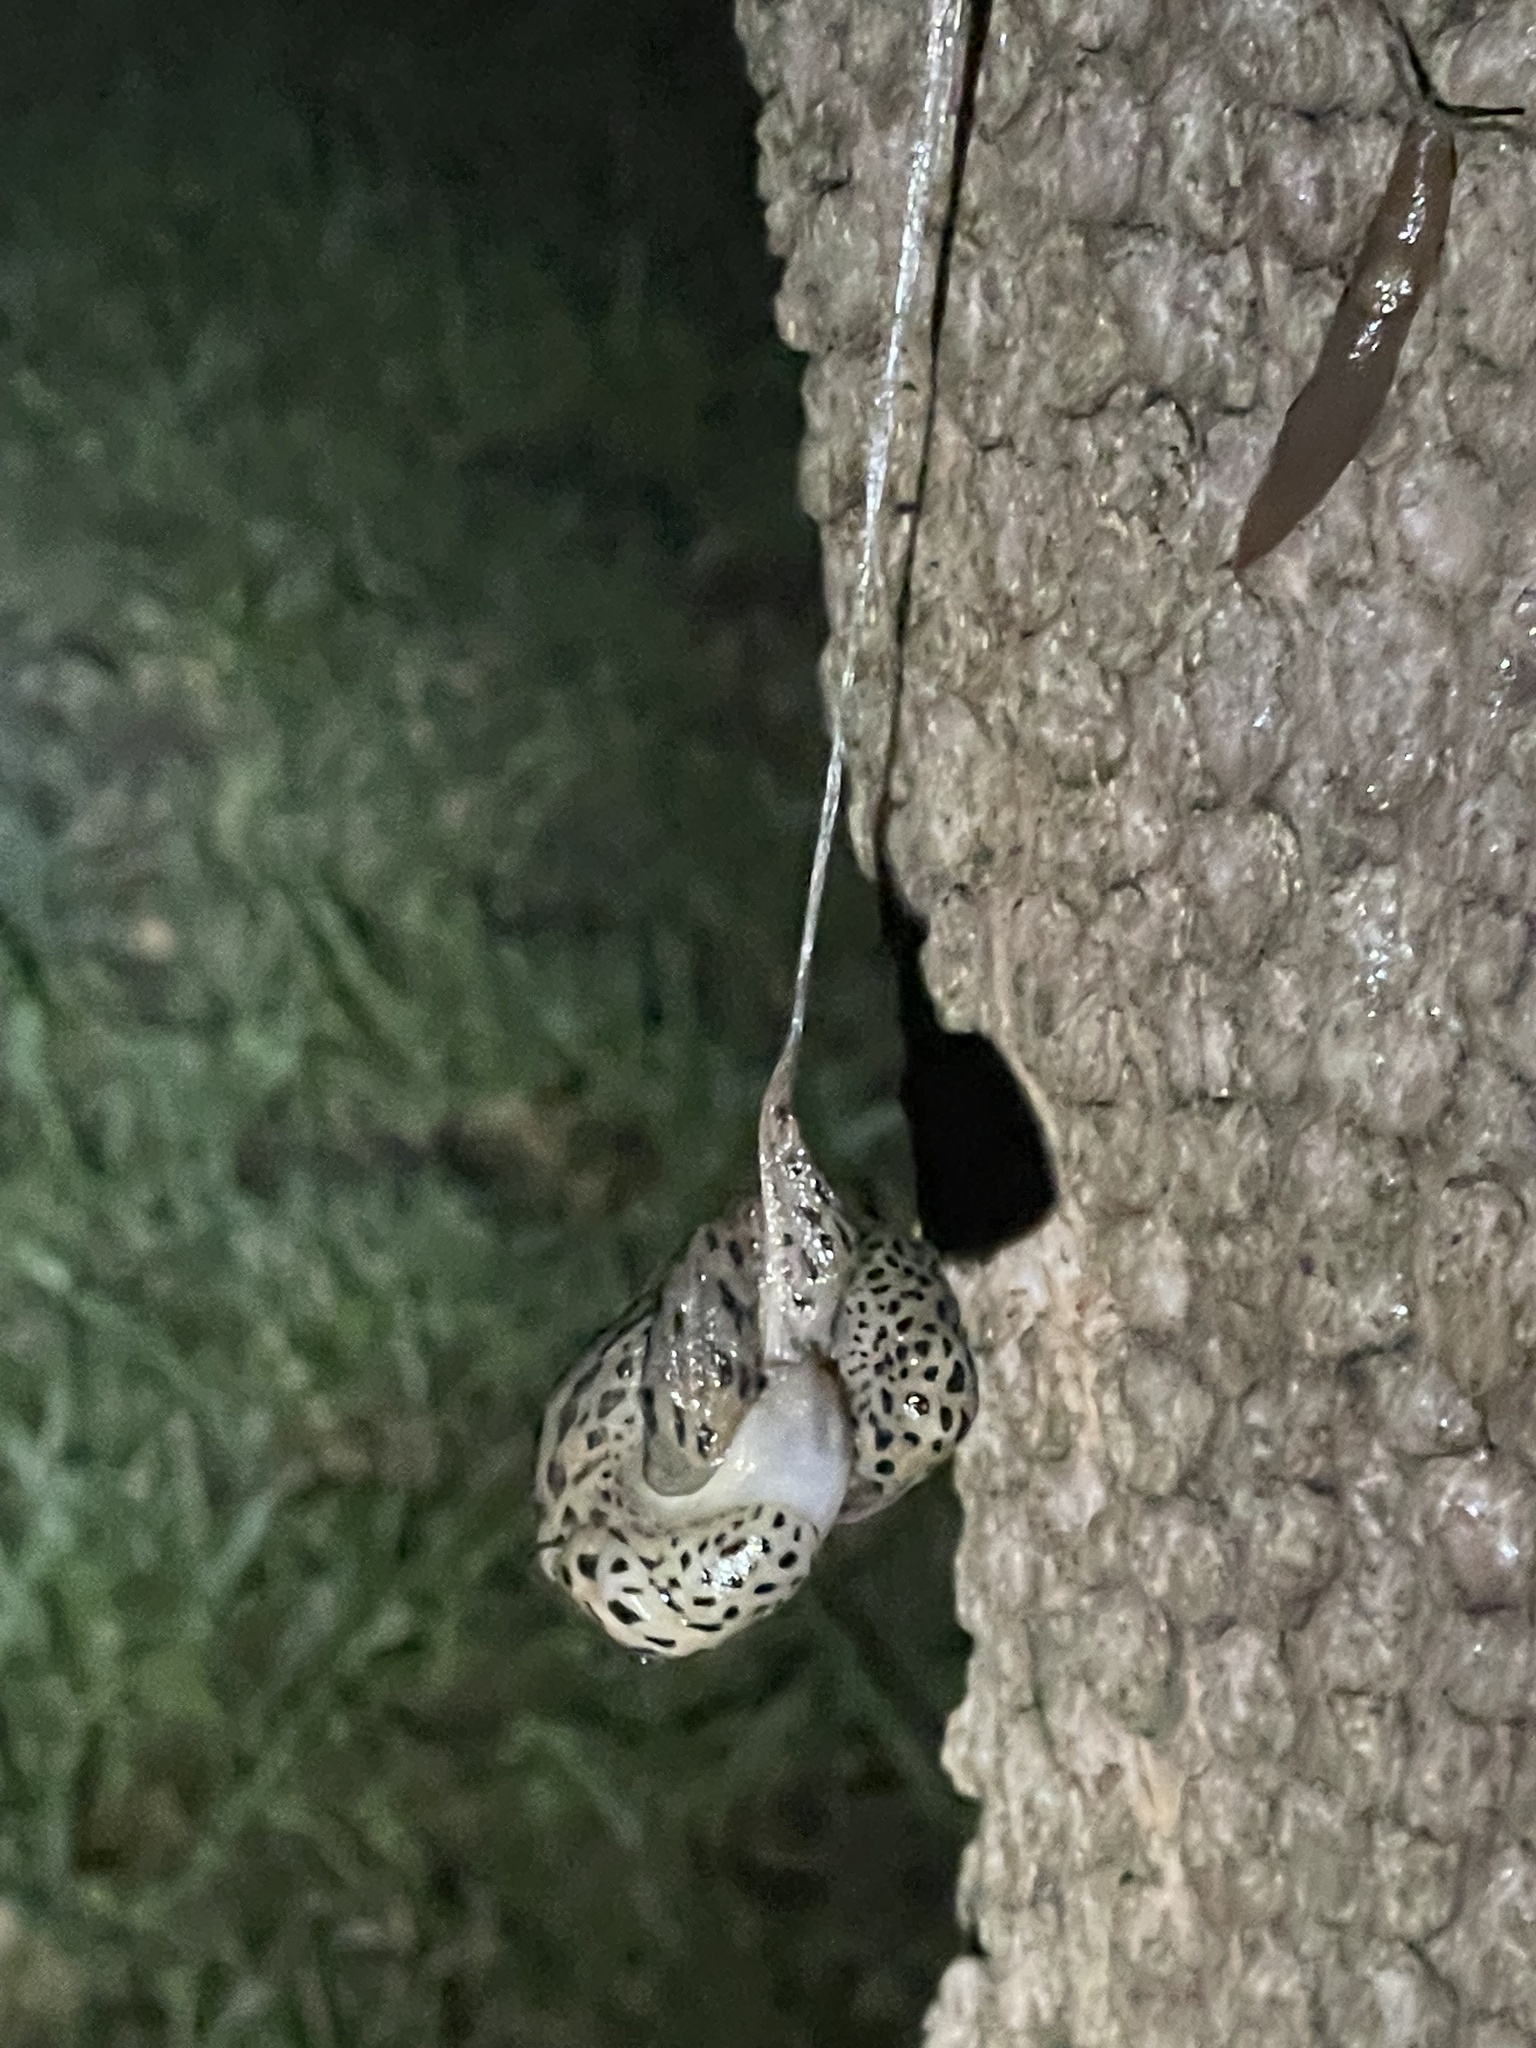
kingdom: Animalia
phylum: Mollusca
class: Gastropoda
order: Stylommatophora
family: Limacidae
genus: Limax
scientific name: Limax maximus
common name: Great grey slug
